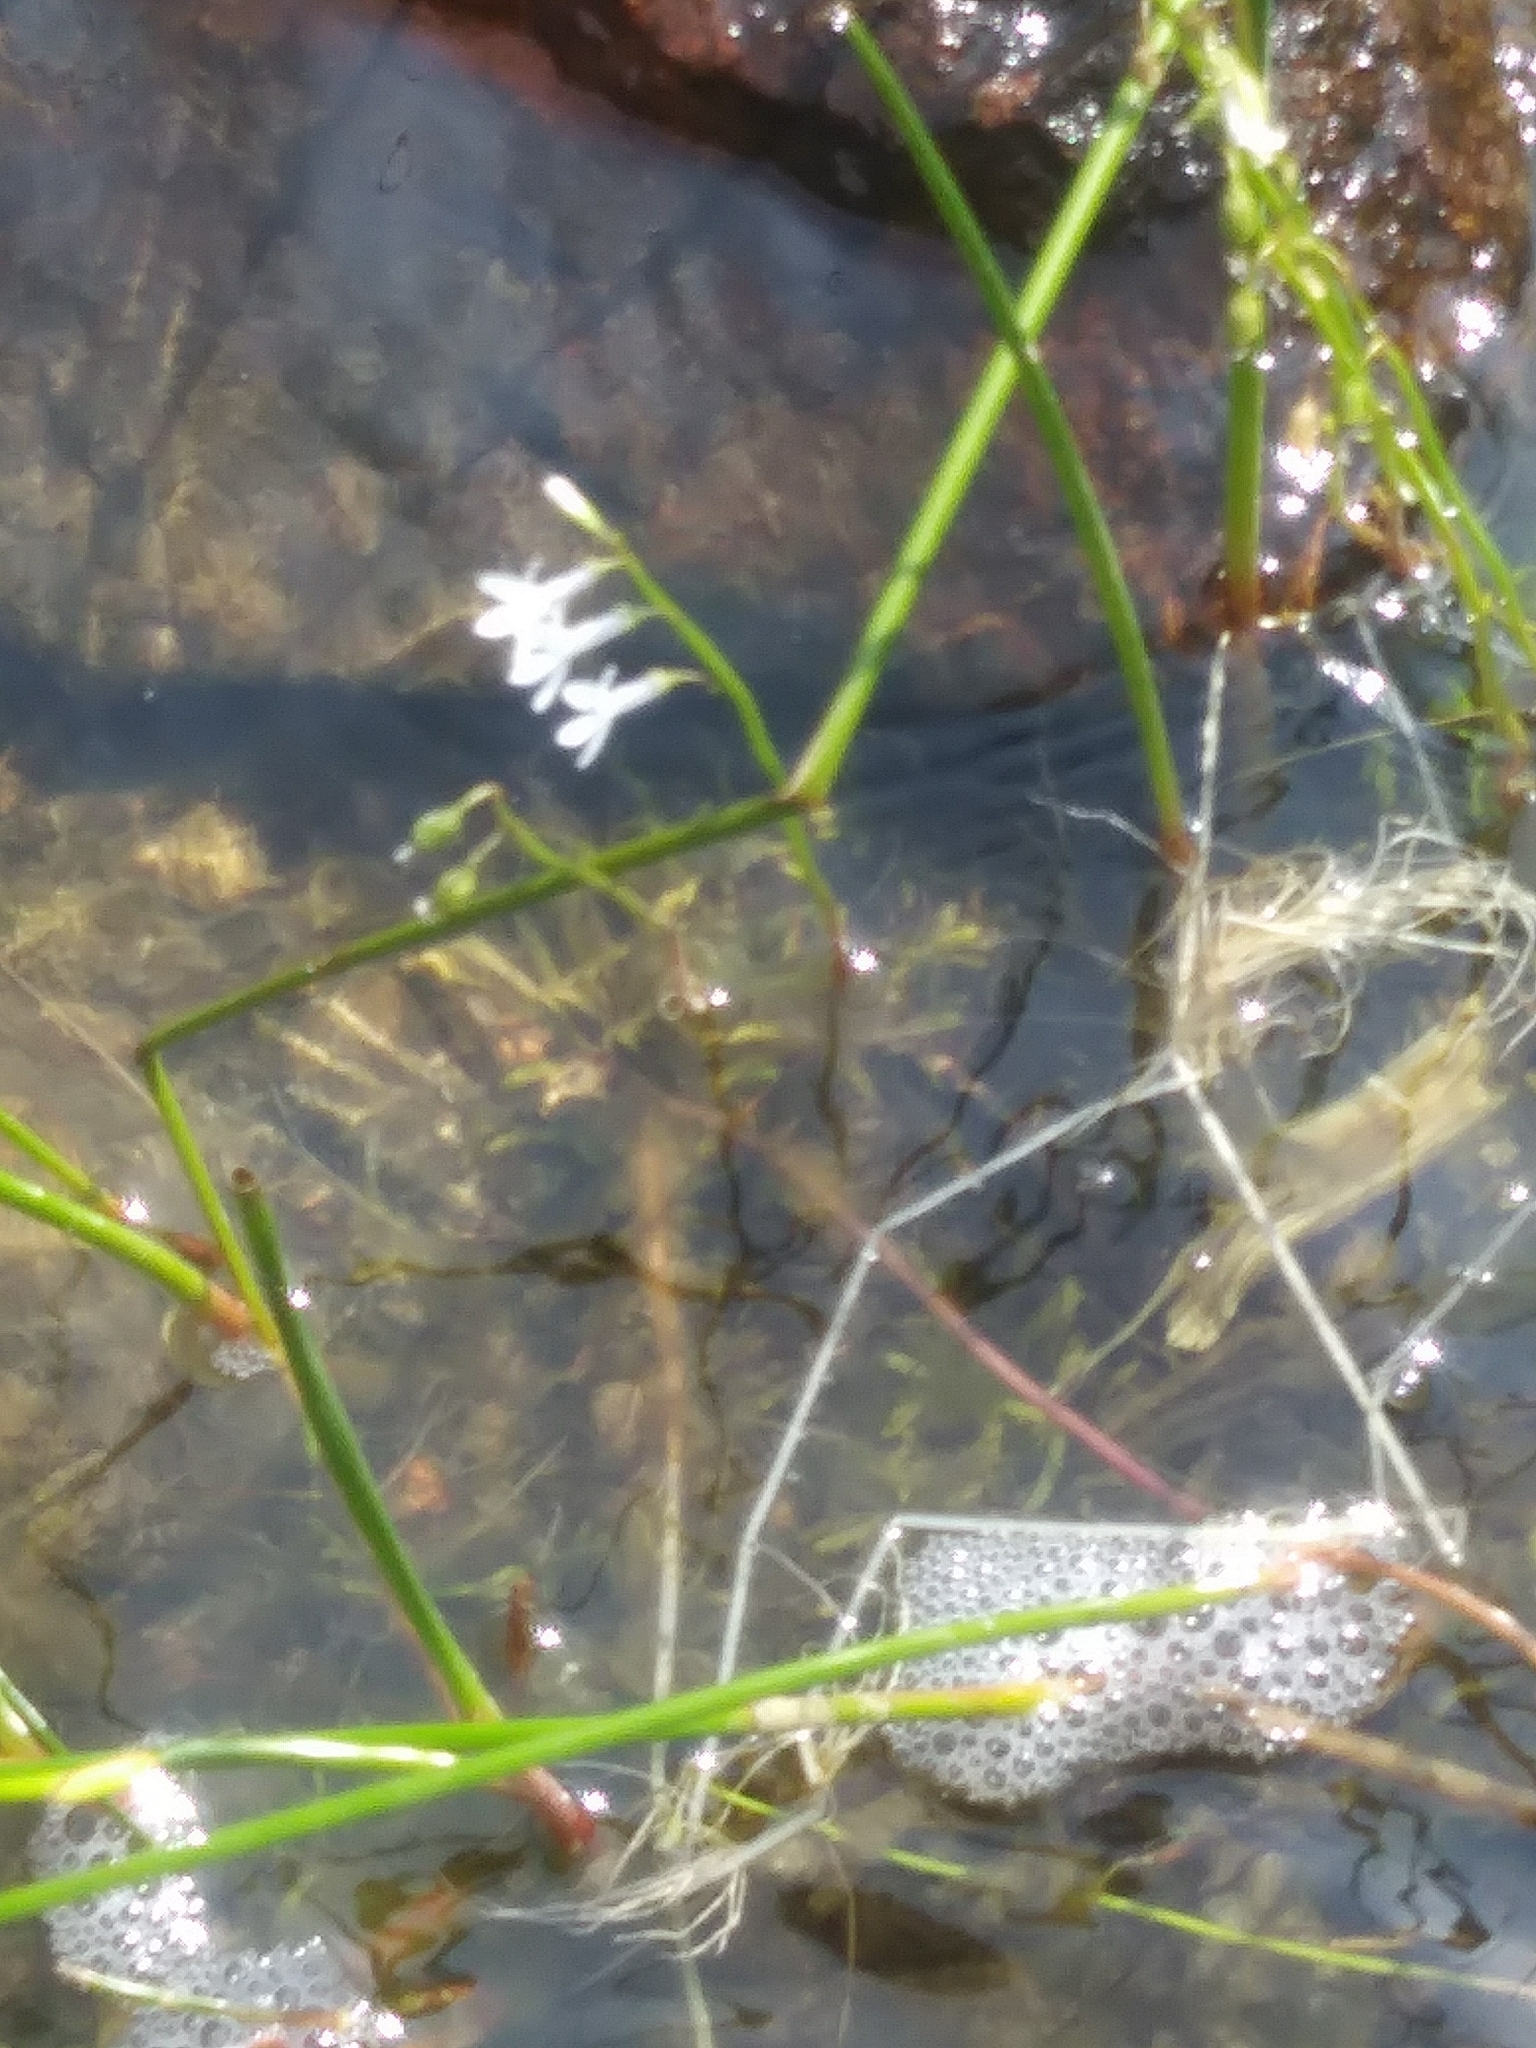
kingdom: Plantae
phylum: Tracheophyta
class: Magnoliopsida
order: Asterales
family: Campanulaceae
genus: Lobelia
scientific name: Lobelia dortmanna
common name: Water lobelia
